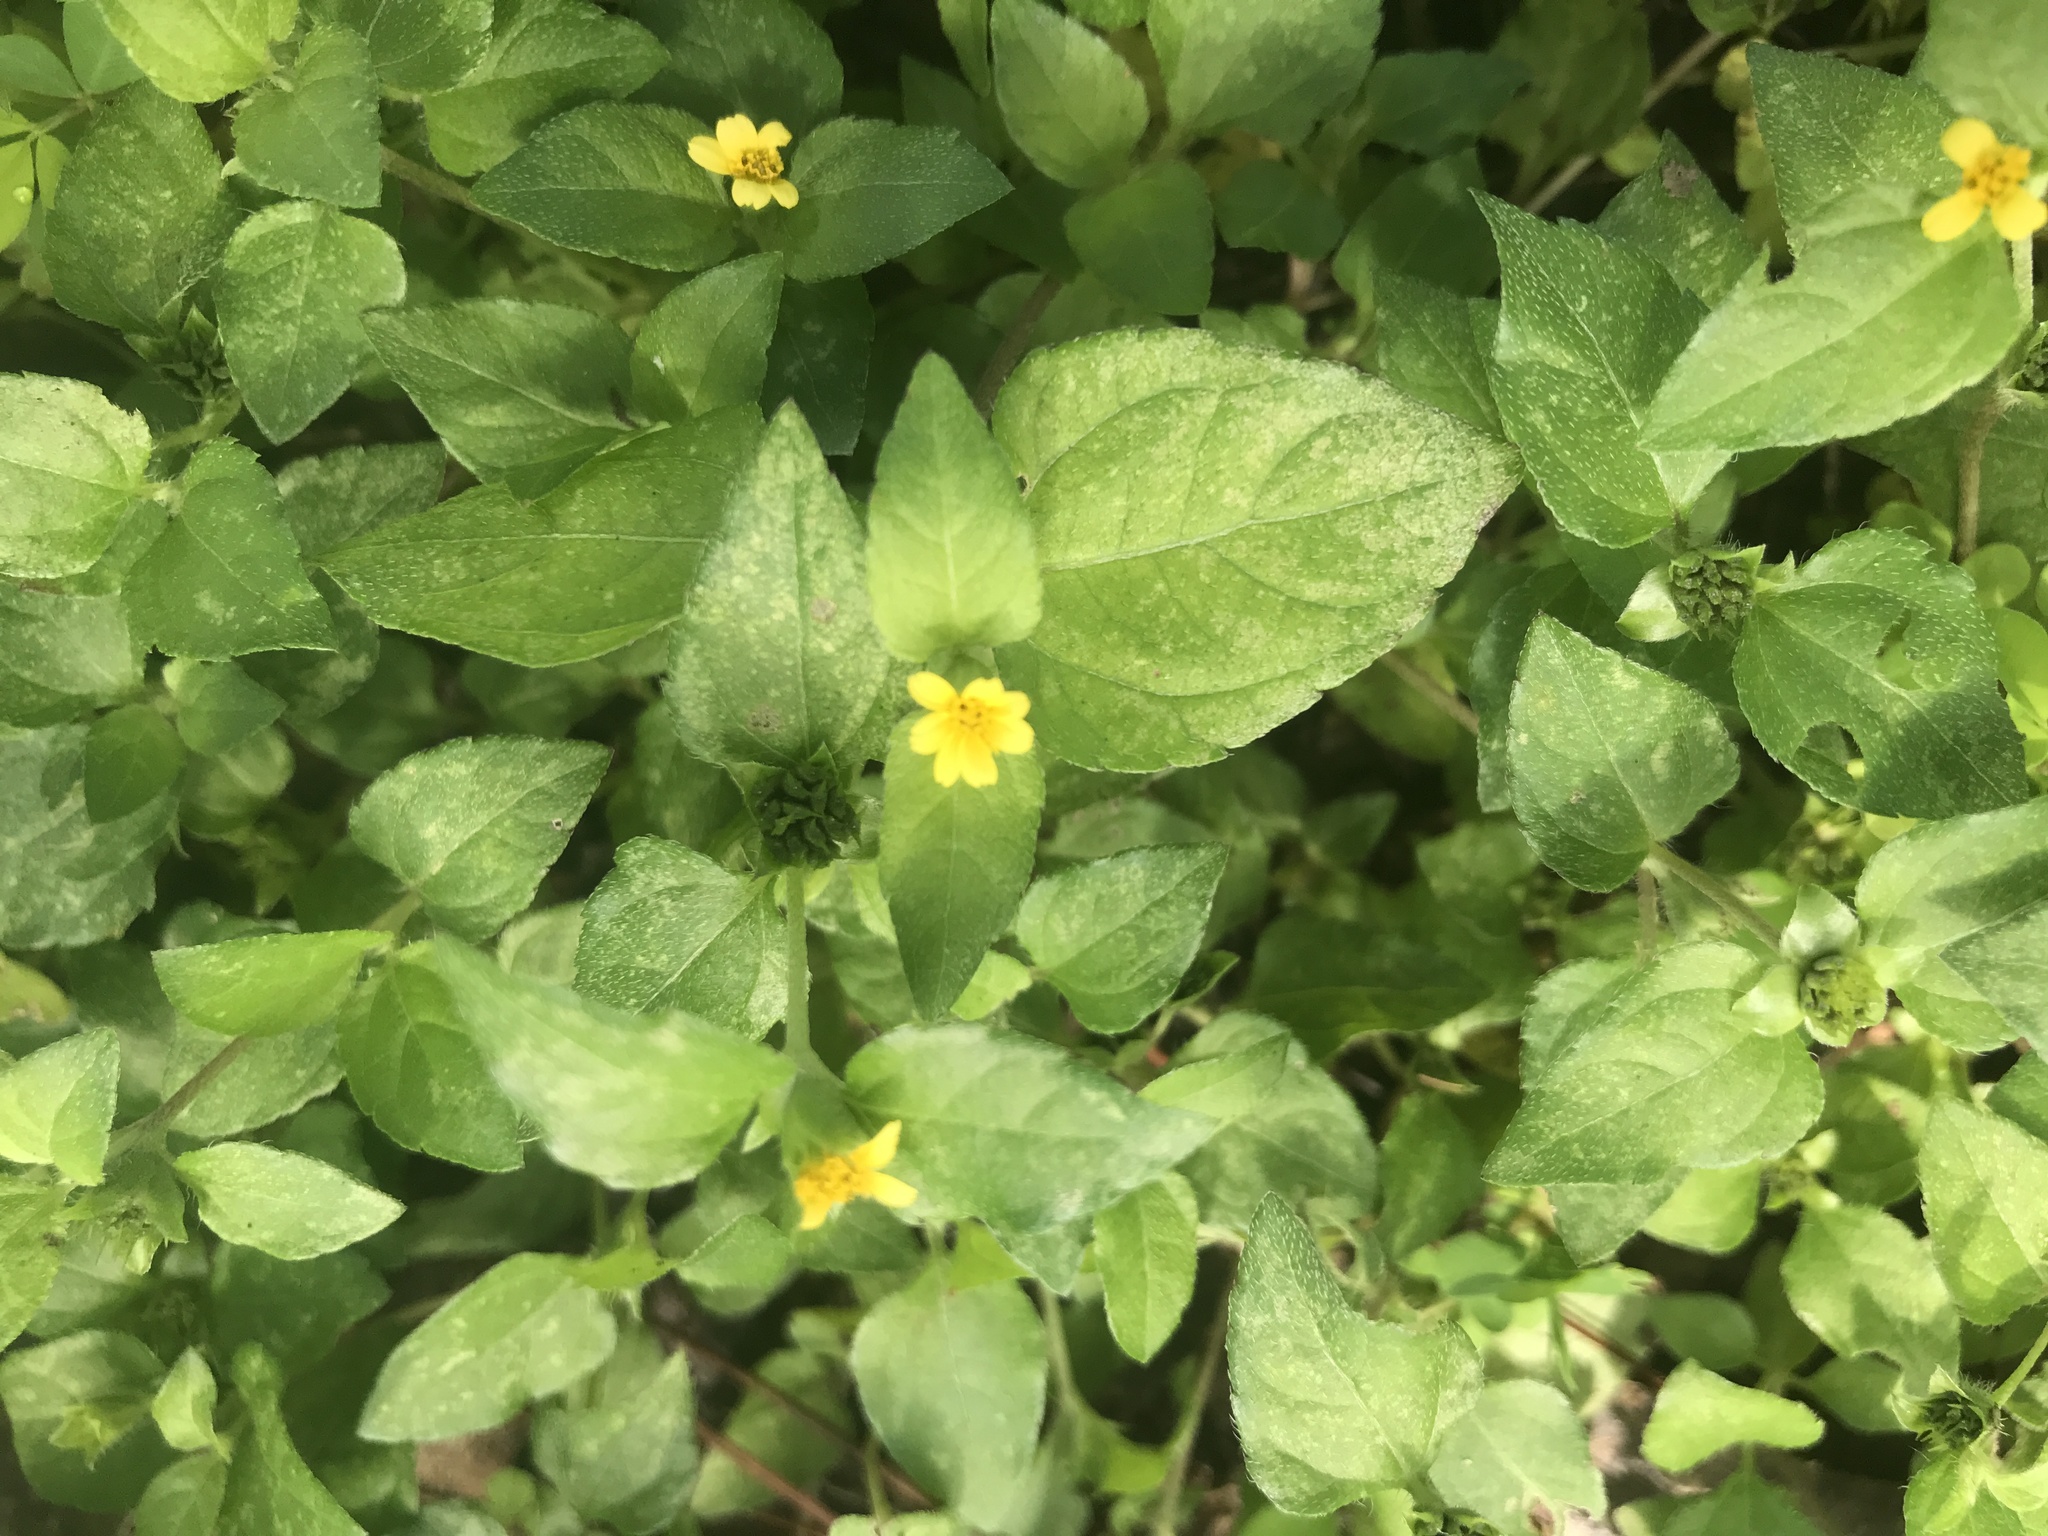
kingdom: Plantae
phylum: Tracheophyta
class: Magnoliopsida
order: Asterales
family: Asteraceae
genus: Calyptocarpus
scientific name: Calyptocarpus vialis
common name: Straggler daisy
